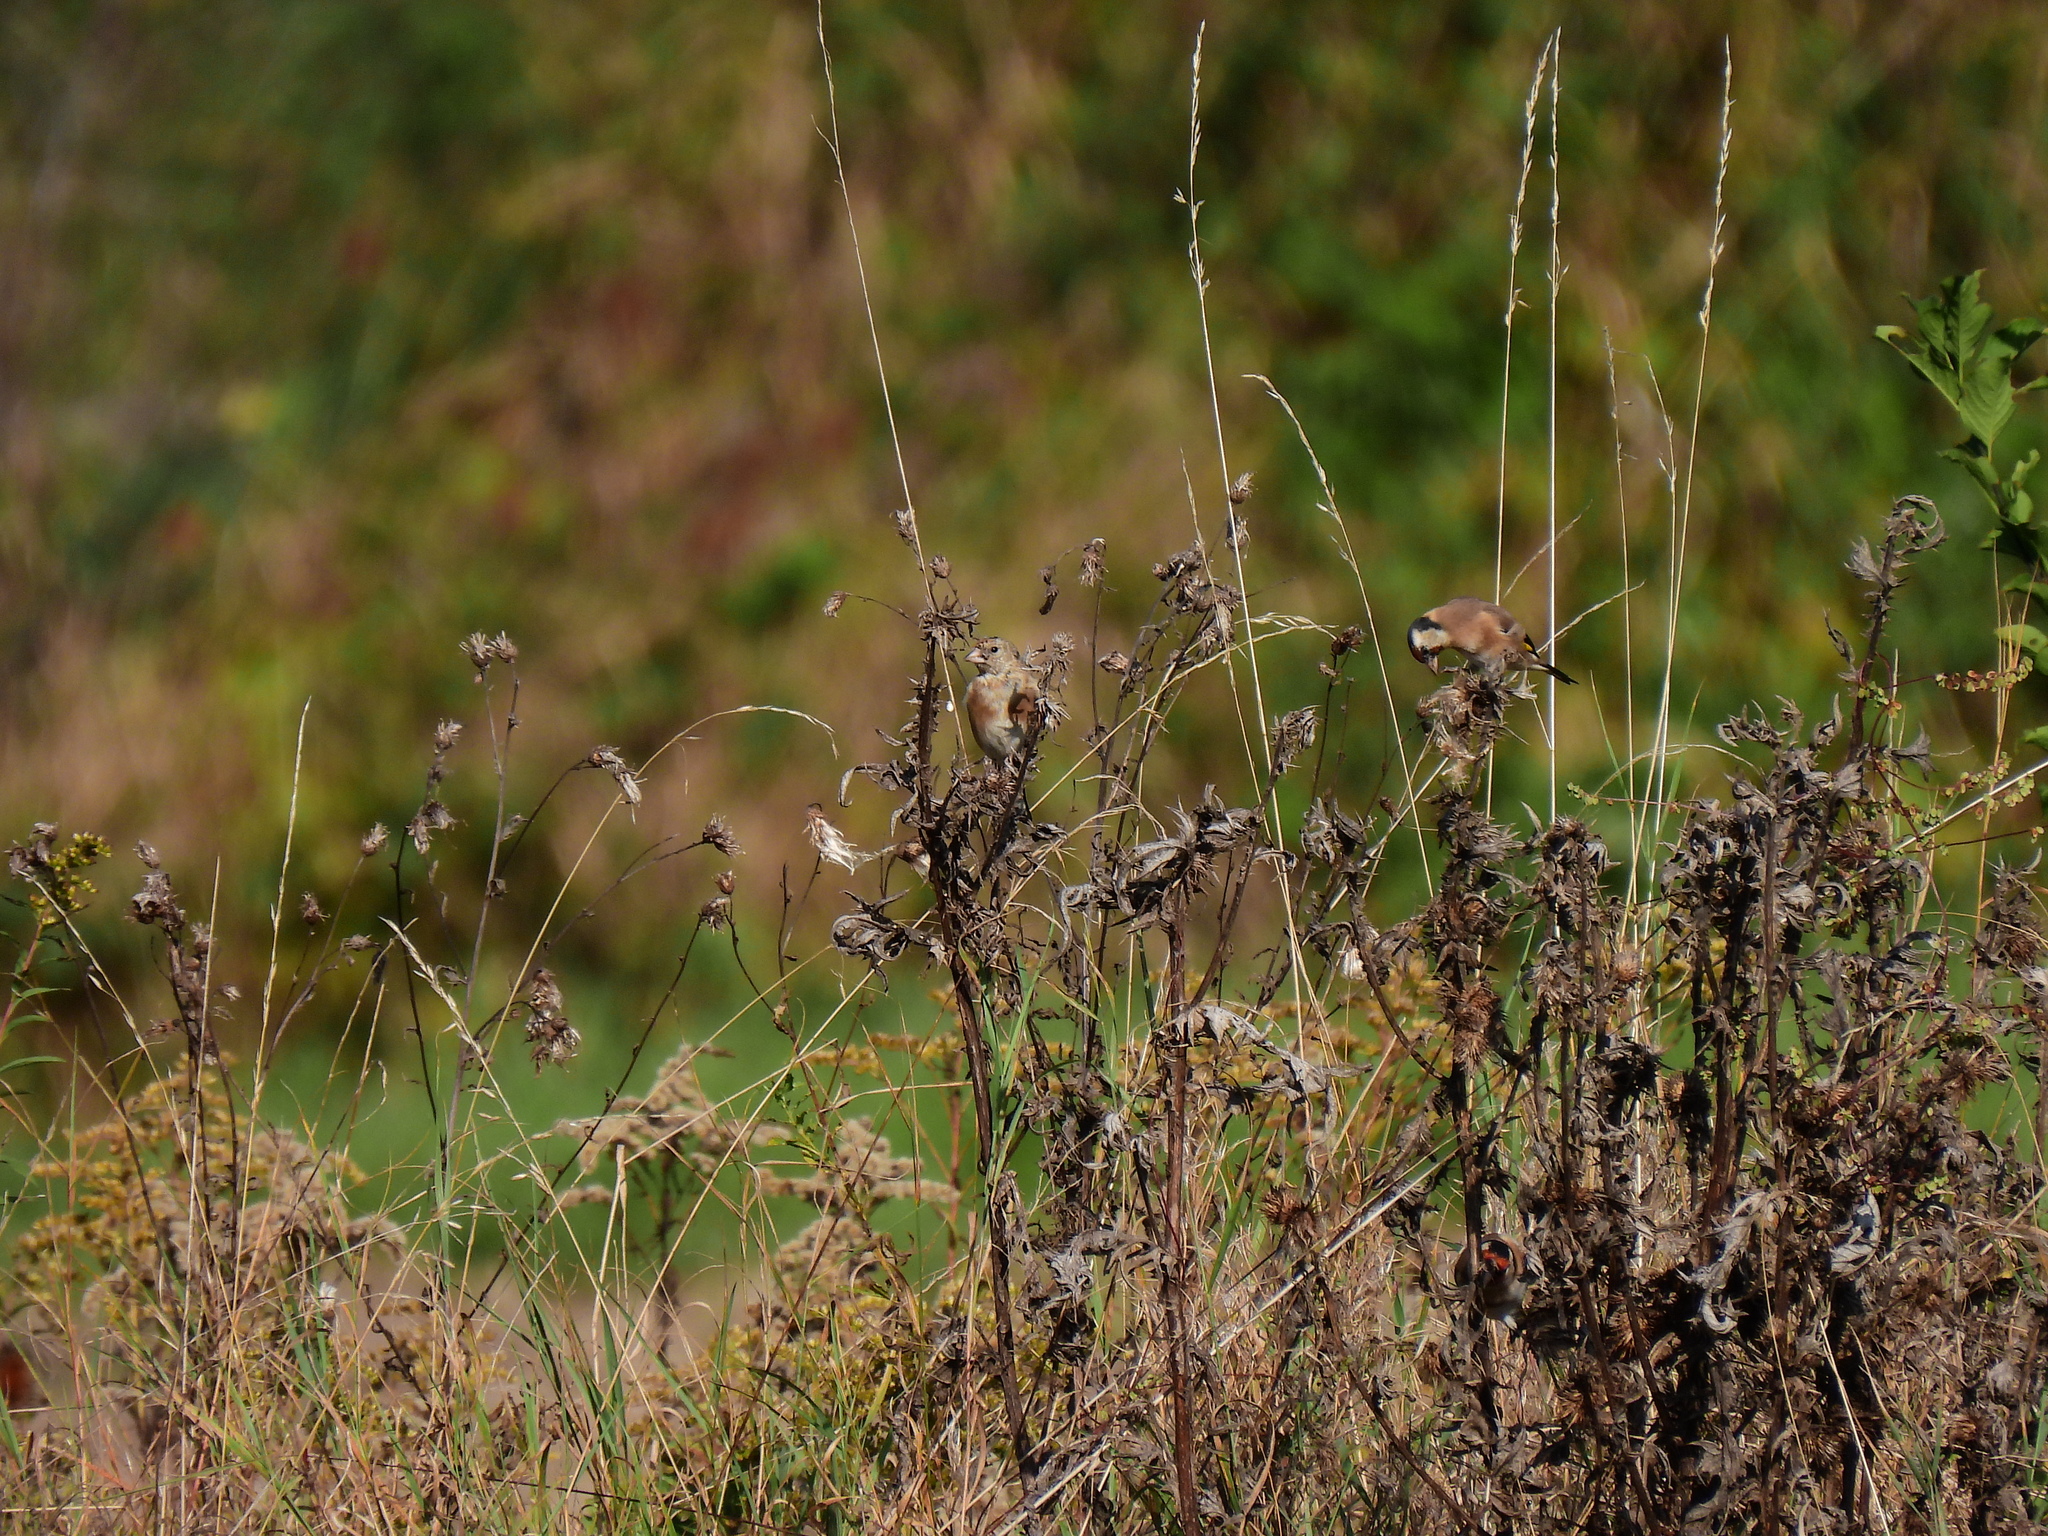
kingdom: Animalia
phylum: Chordata
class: Aves
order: Passeriformes
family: Fringillidae
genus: Carduelis
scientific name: Carduelis carduelis
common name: European goldfinch
